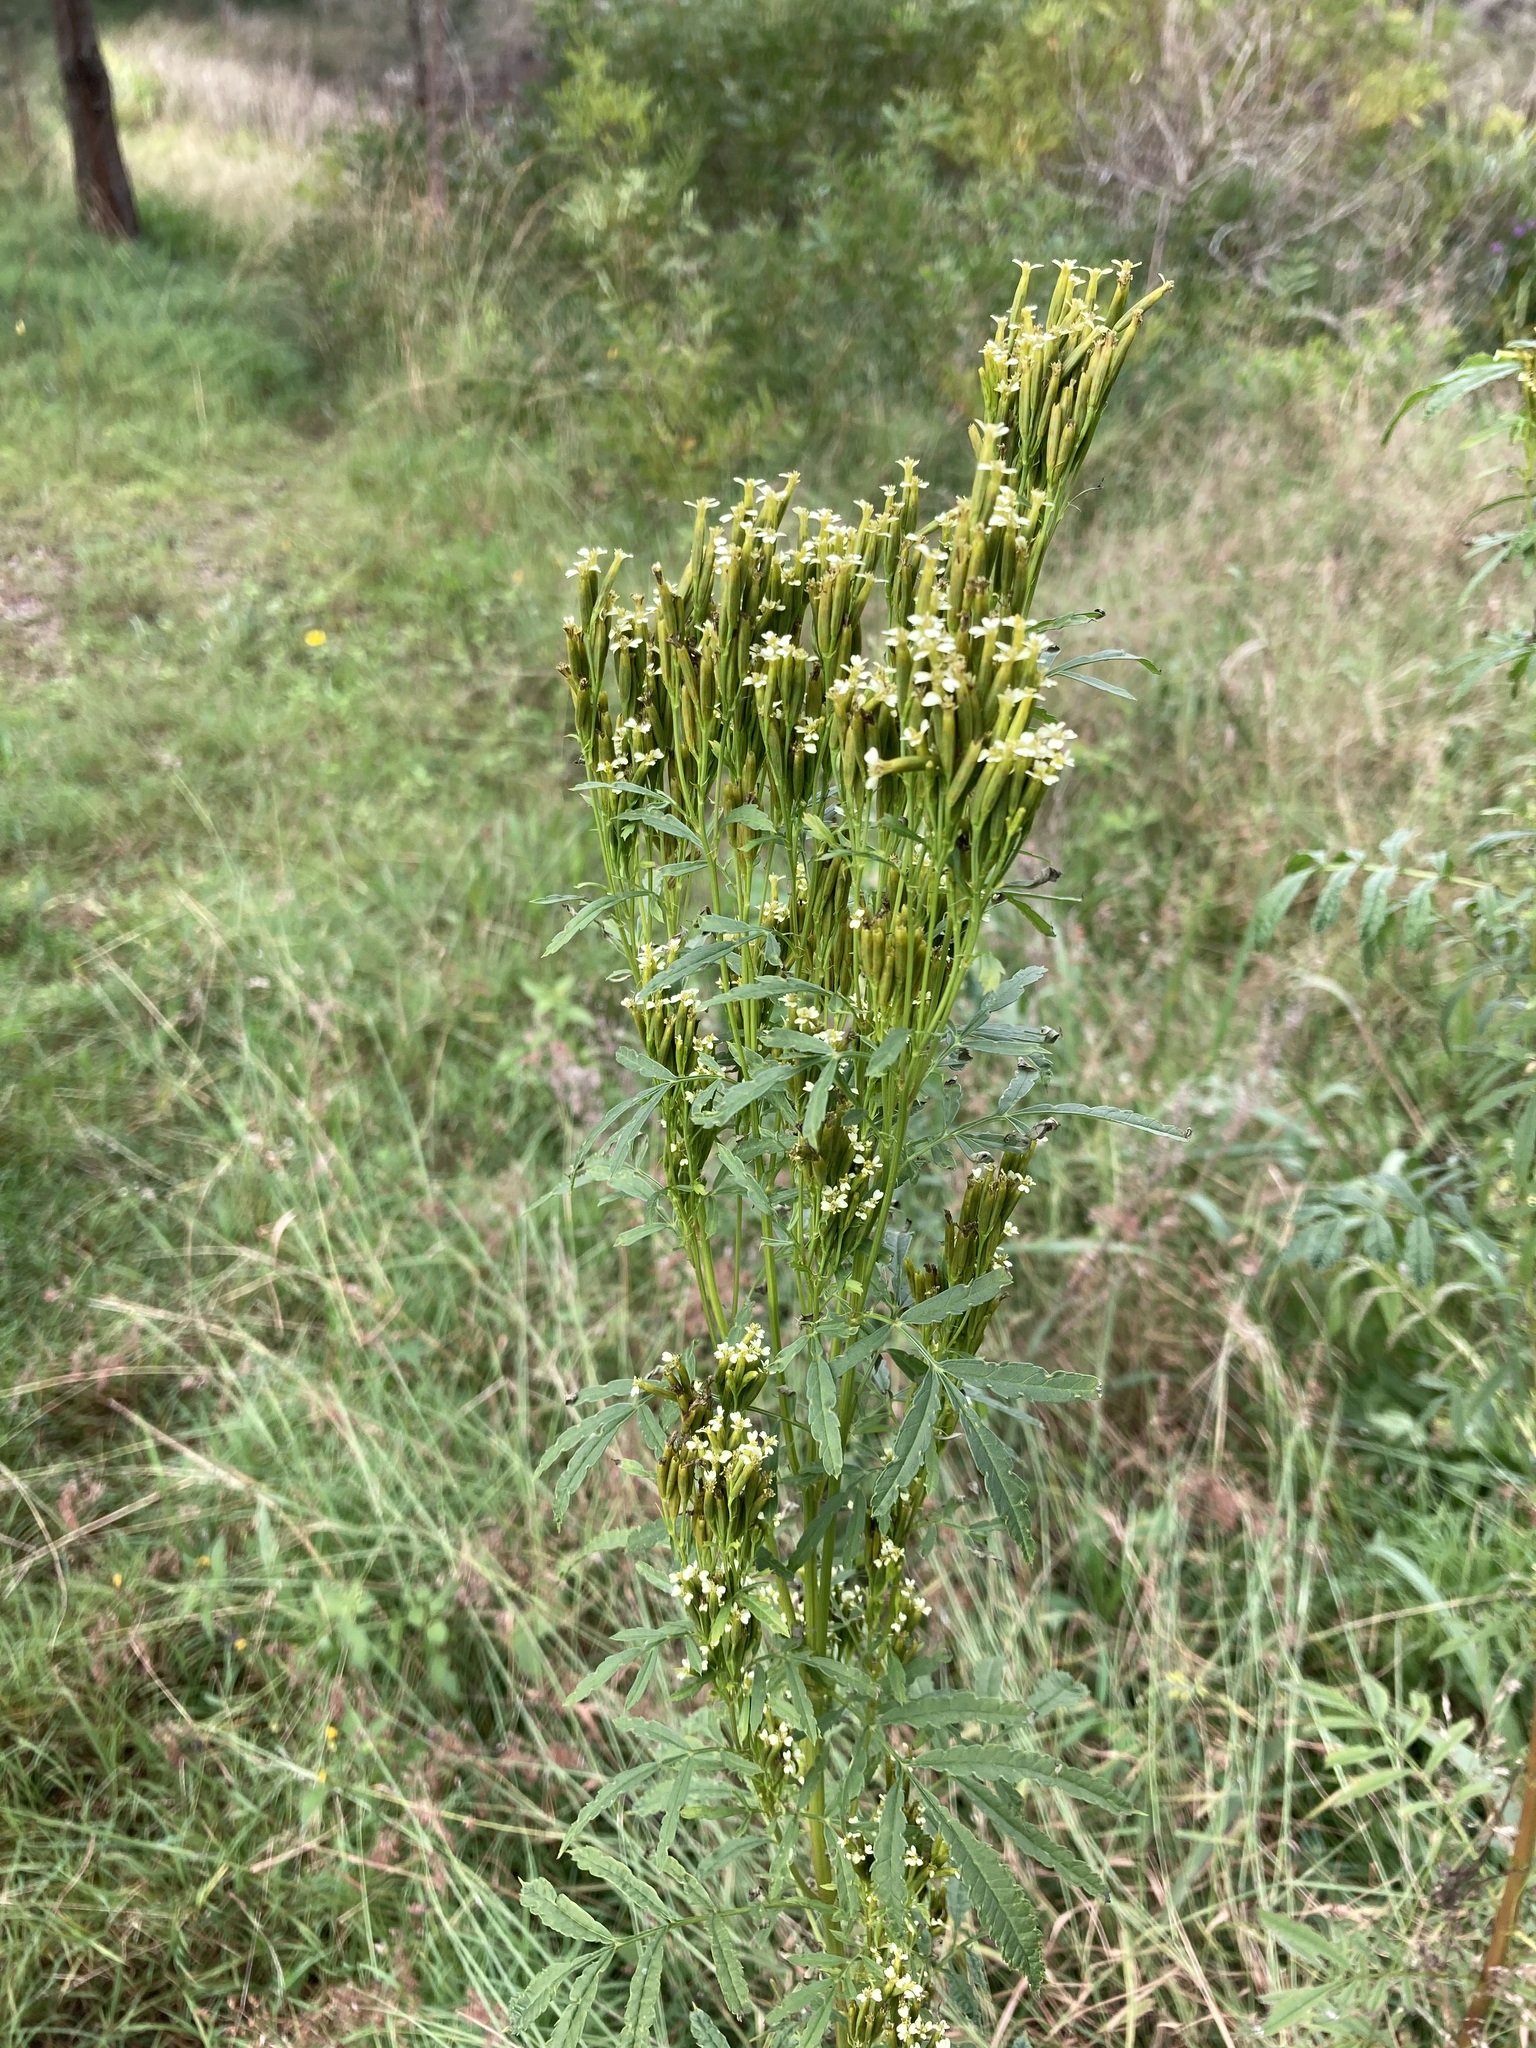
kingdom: Plantae
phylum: Tracheophyta
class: Magnoliopsida
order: Asterales
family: Asteraceae
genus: Tagetes
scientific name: Tagetes minuta
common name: Muster john henry
